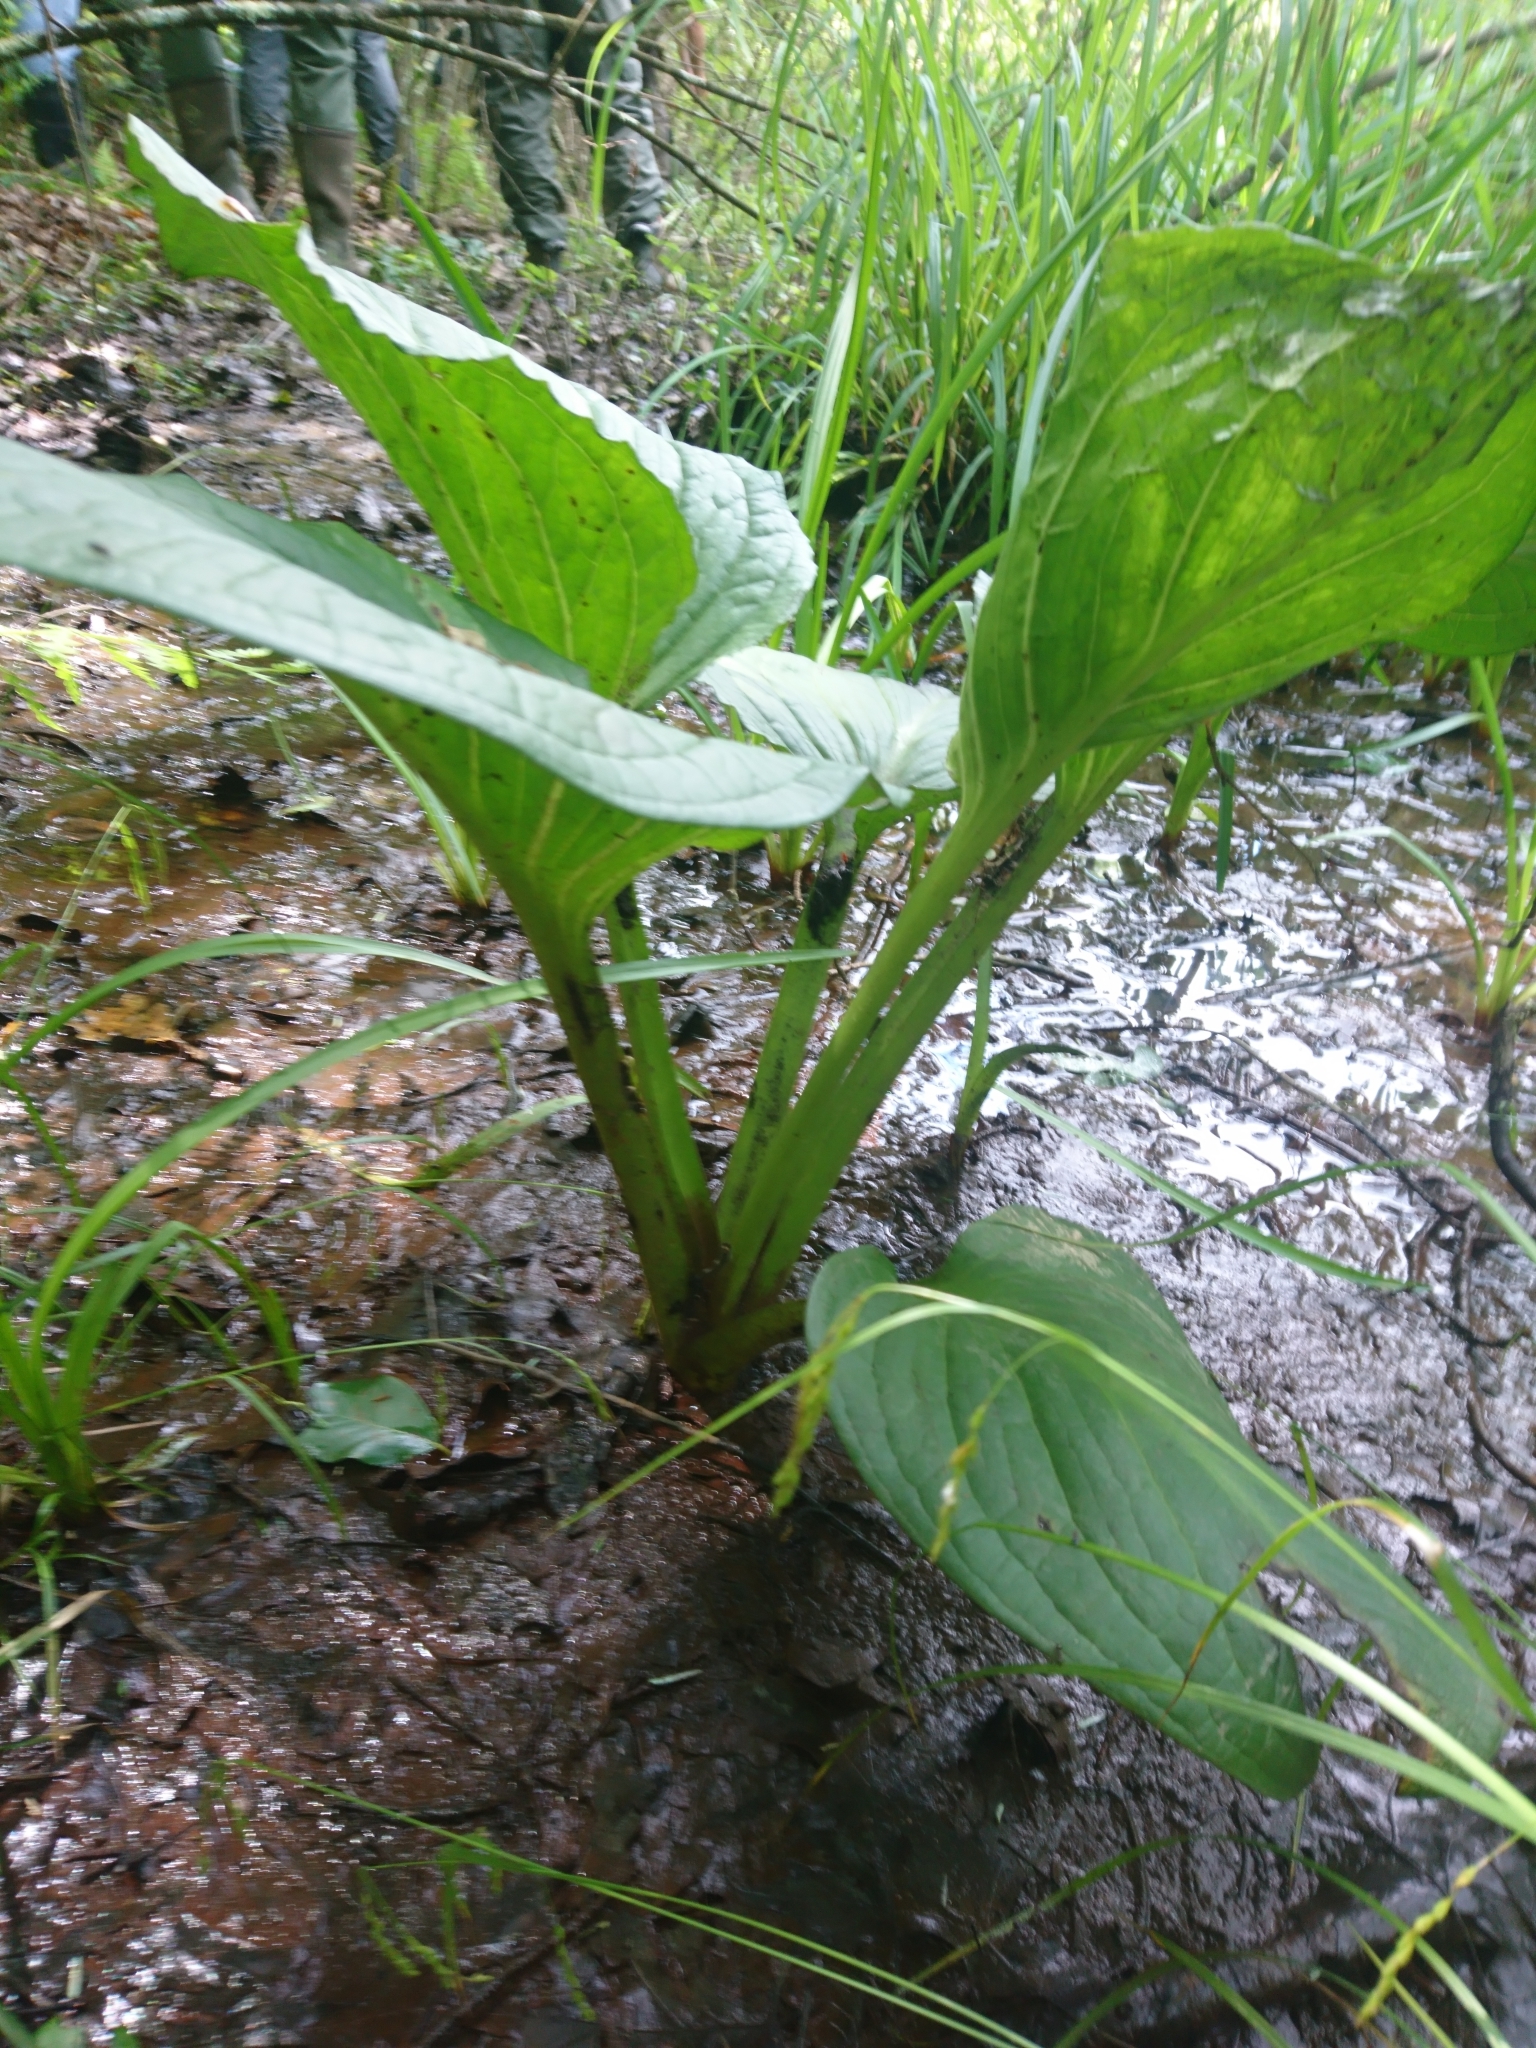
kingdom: Plantae
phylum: Tracheophyta
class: Liliopsida
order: Alismatales
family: Araceae
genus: Symplocarpus
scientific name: Symplocarpus foetidus
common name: Eastern skunk cabbage
